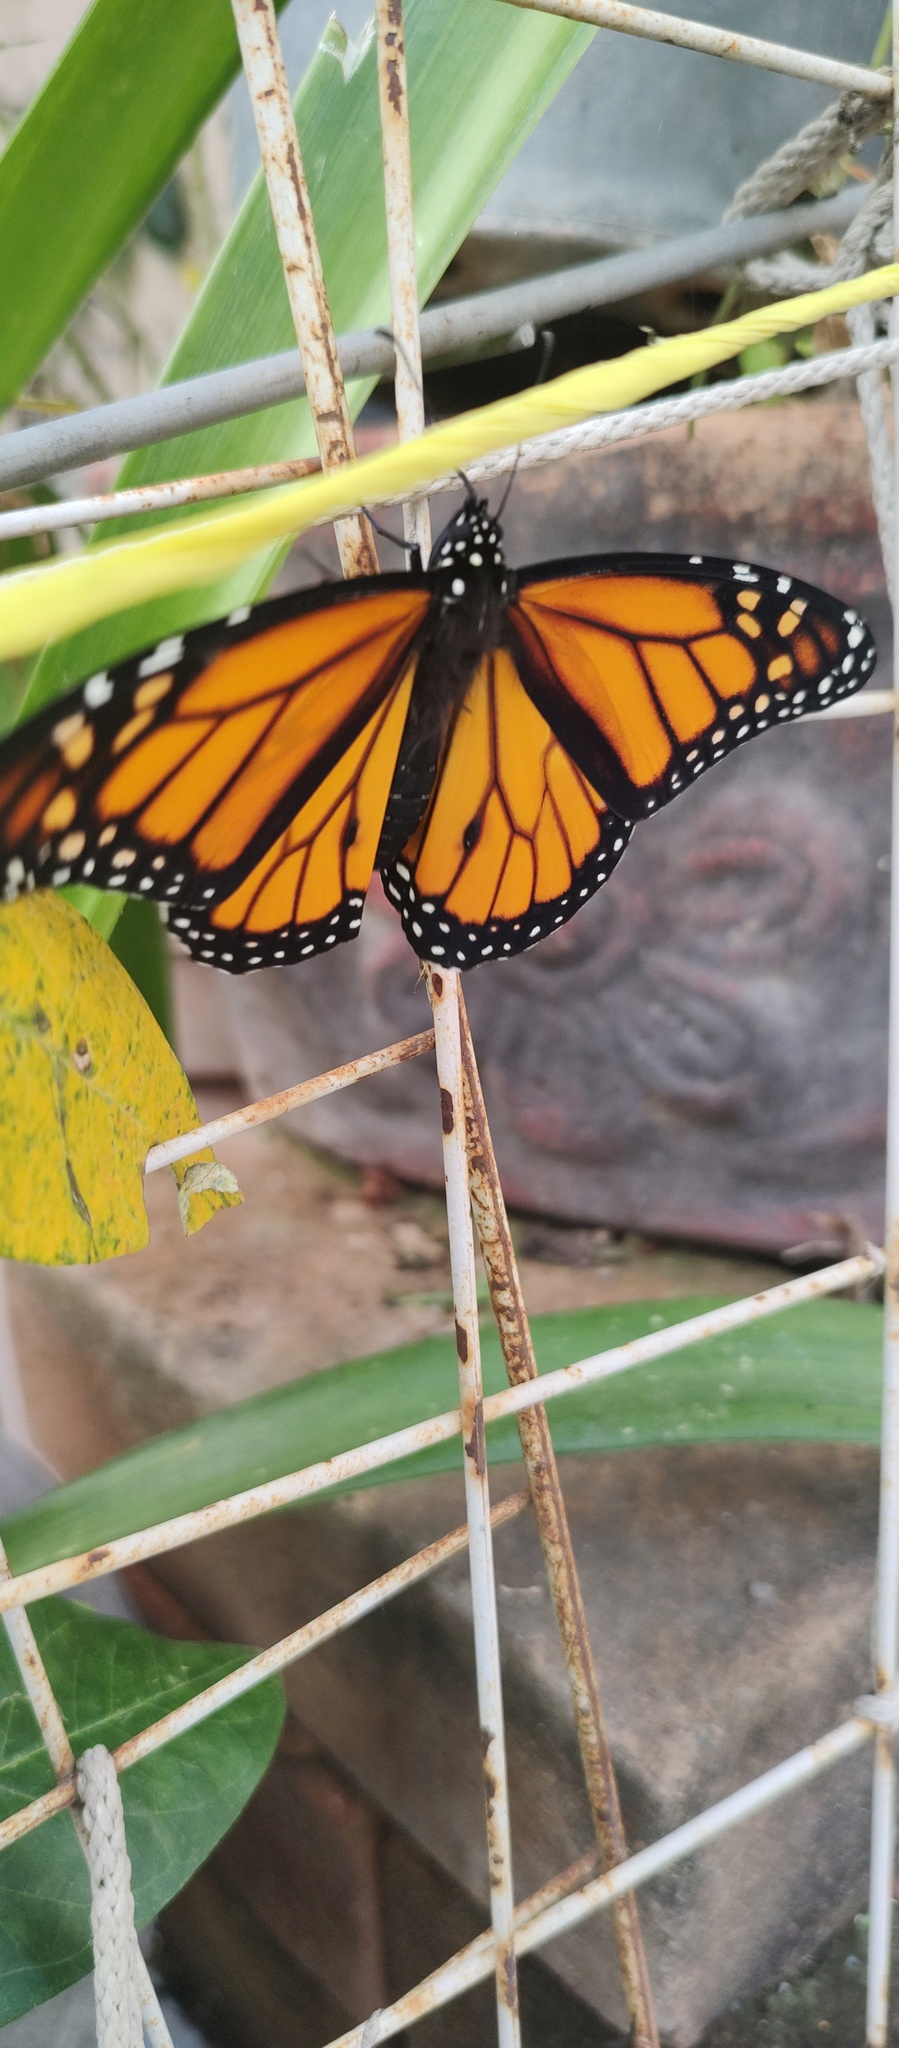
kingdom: Animalia
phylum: Arthropoda
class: Insecta
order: Lepidoptera
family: Nymphalidae
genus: Danaus
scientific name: Danaus plexippus
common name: Monarch
